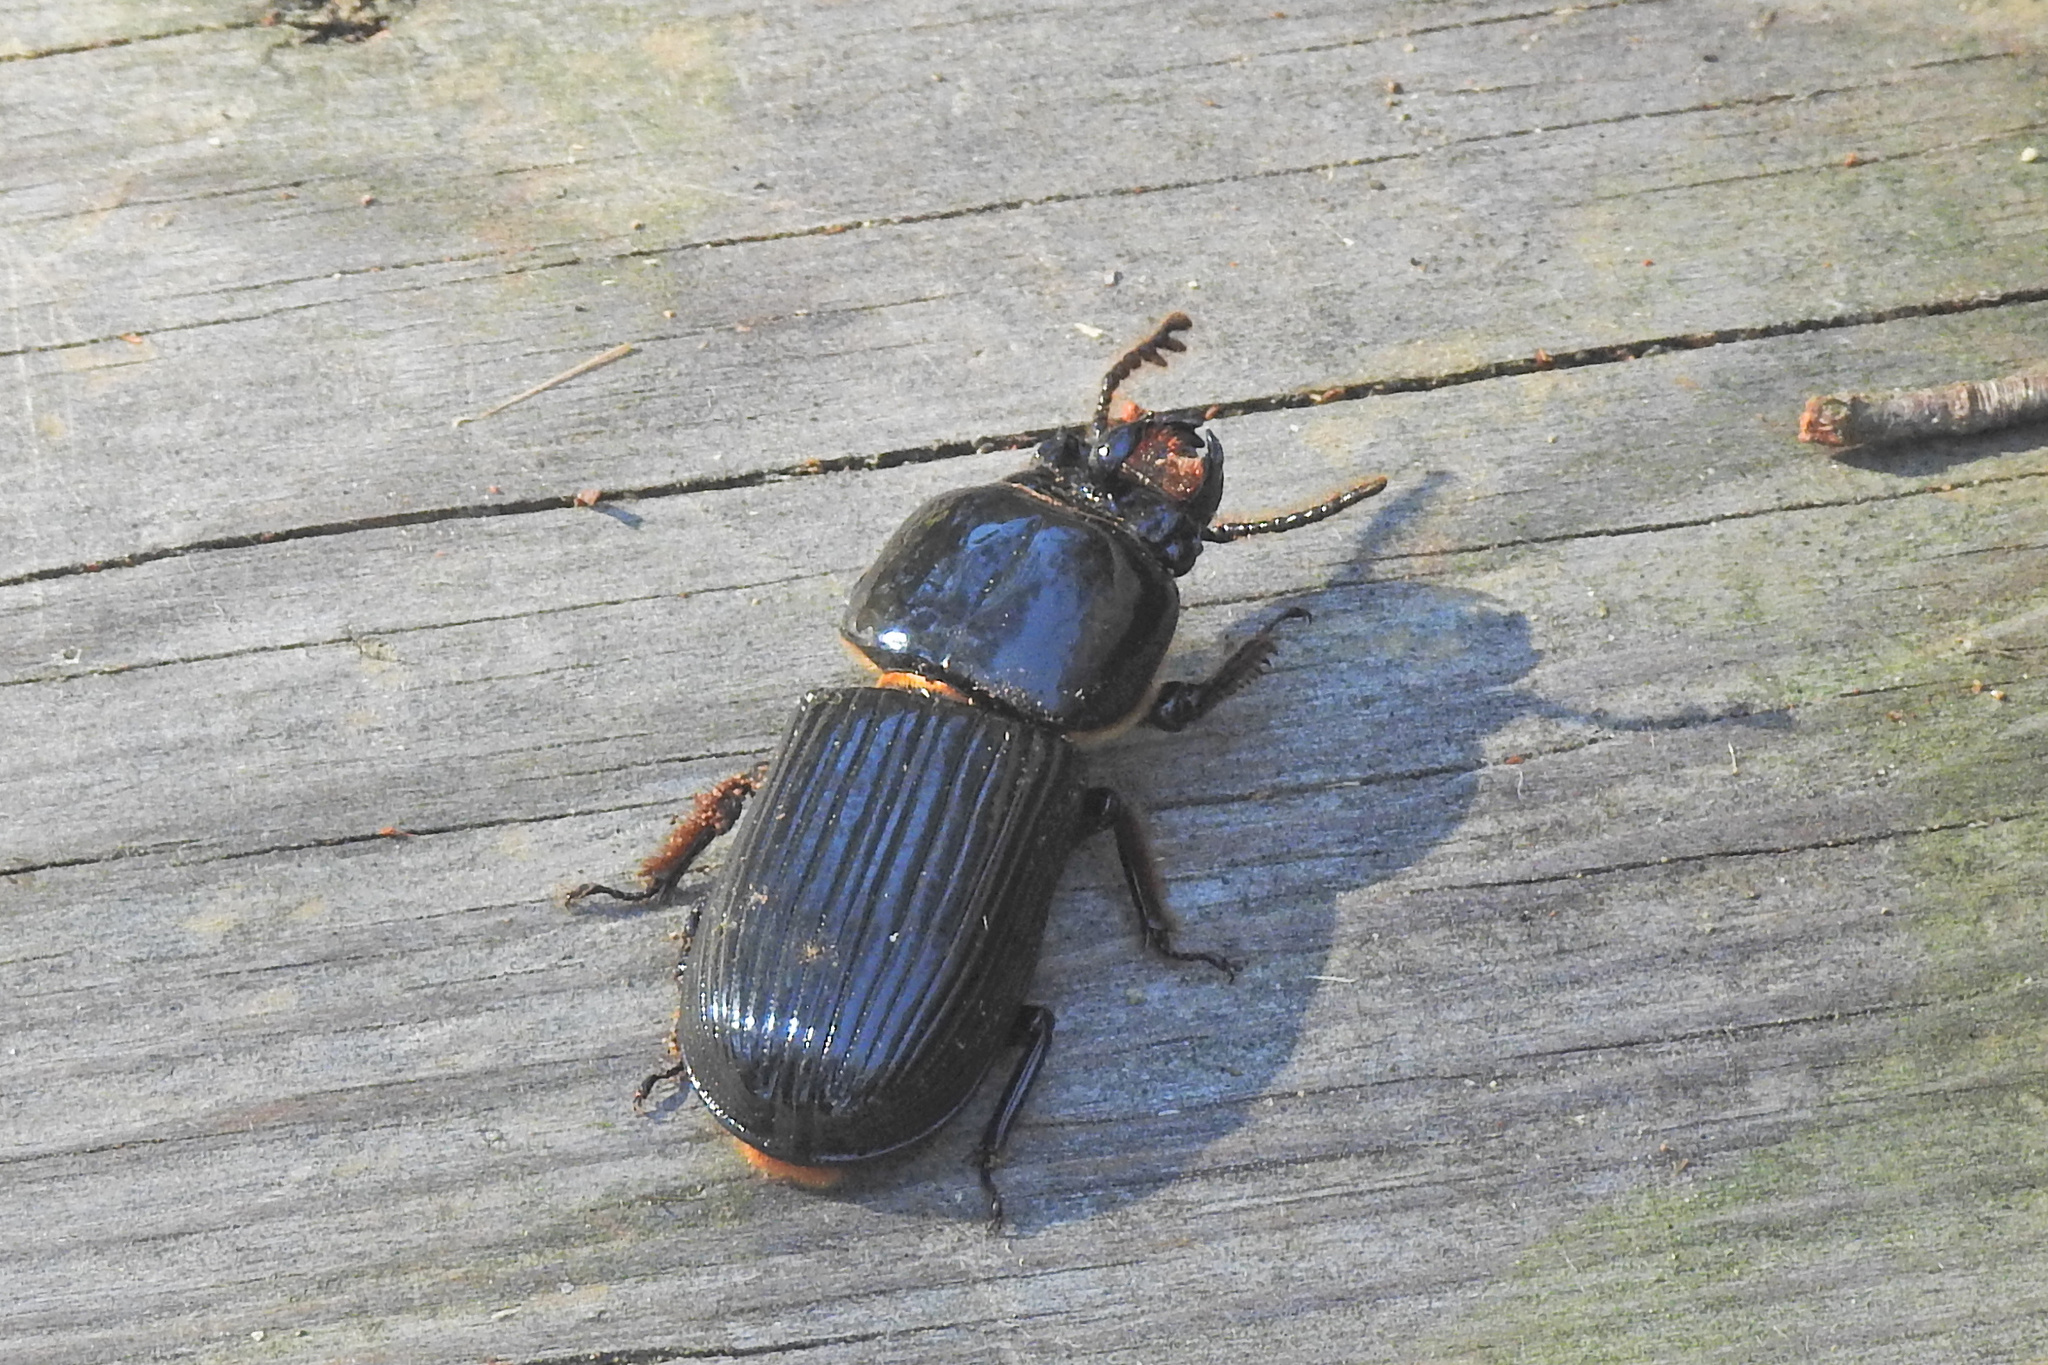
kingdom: Animalia
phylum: Arthropoda
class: Insecta
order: Coleoptera
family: Passalidae
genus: Odontotaenius
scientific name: Odontotaenius disjunctus
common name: Patent leather beetle
